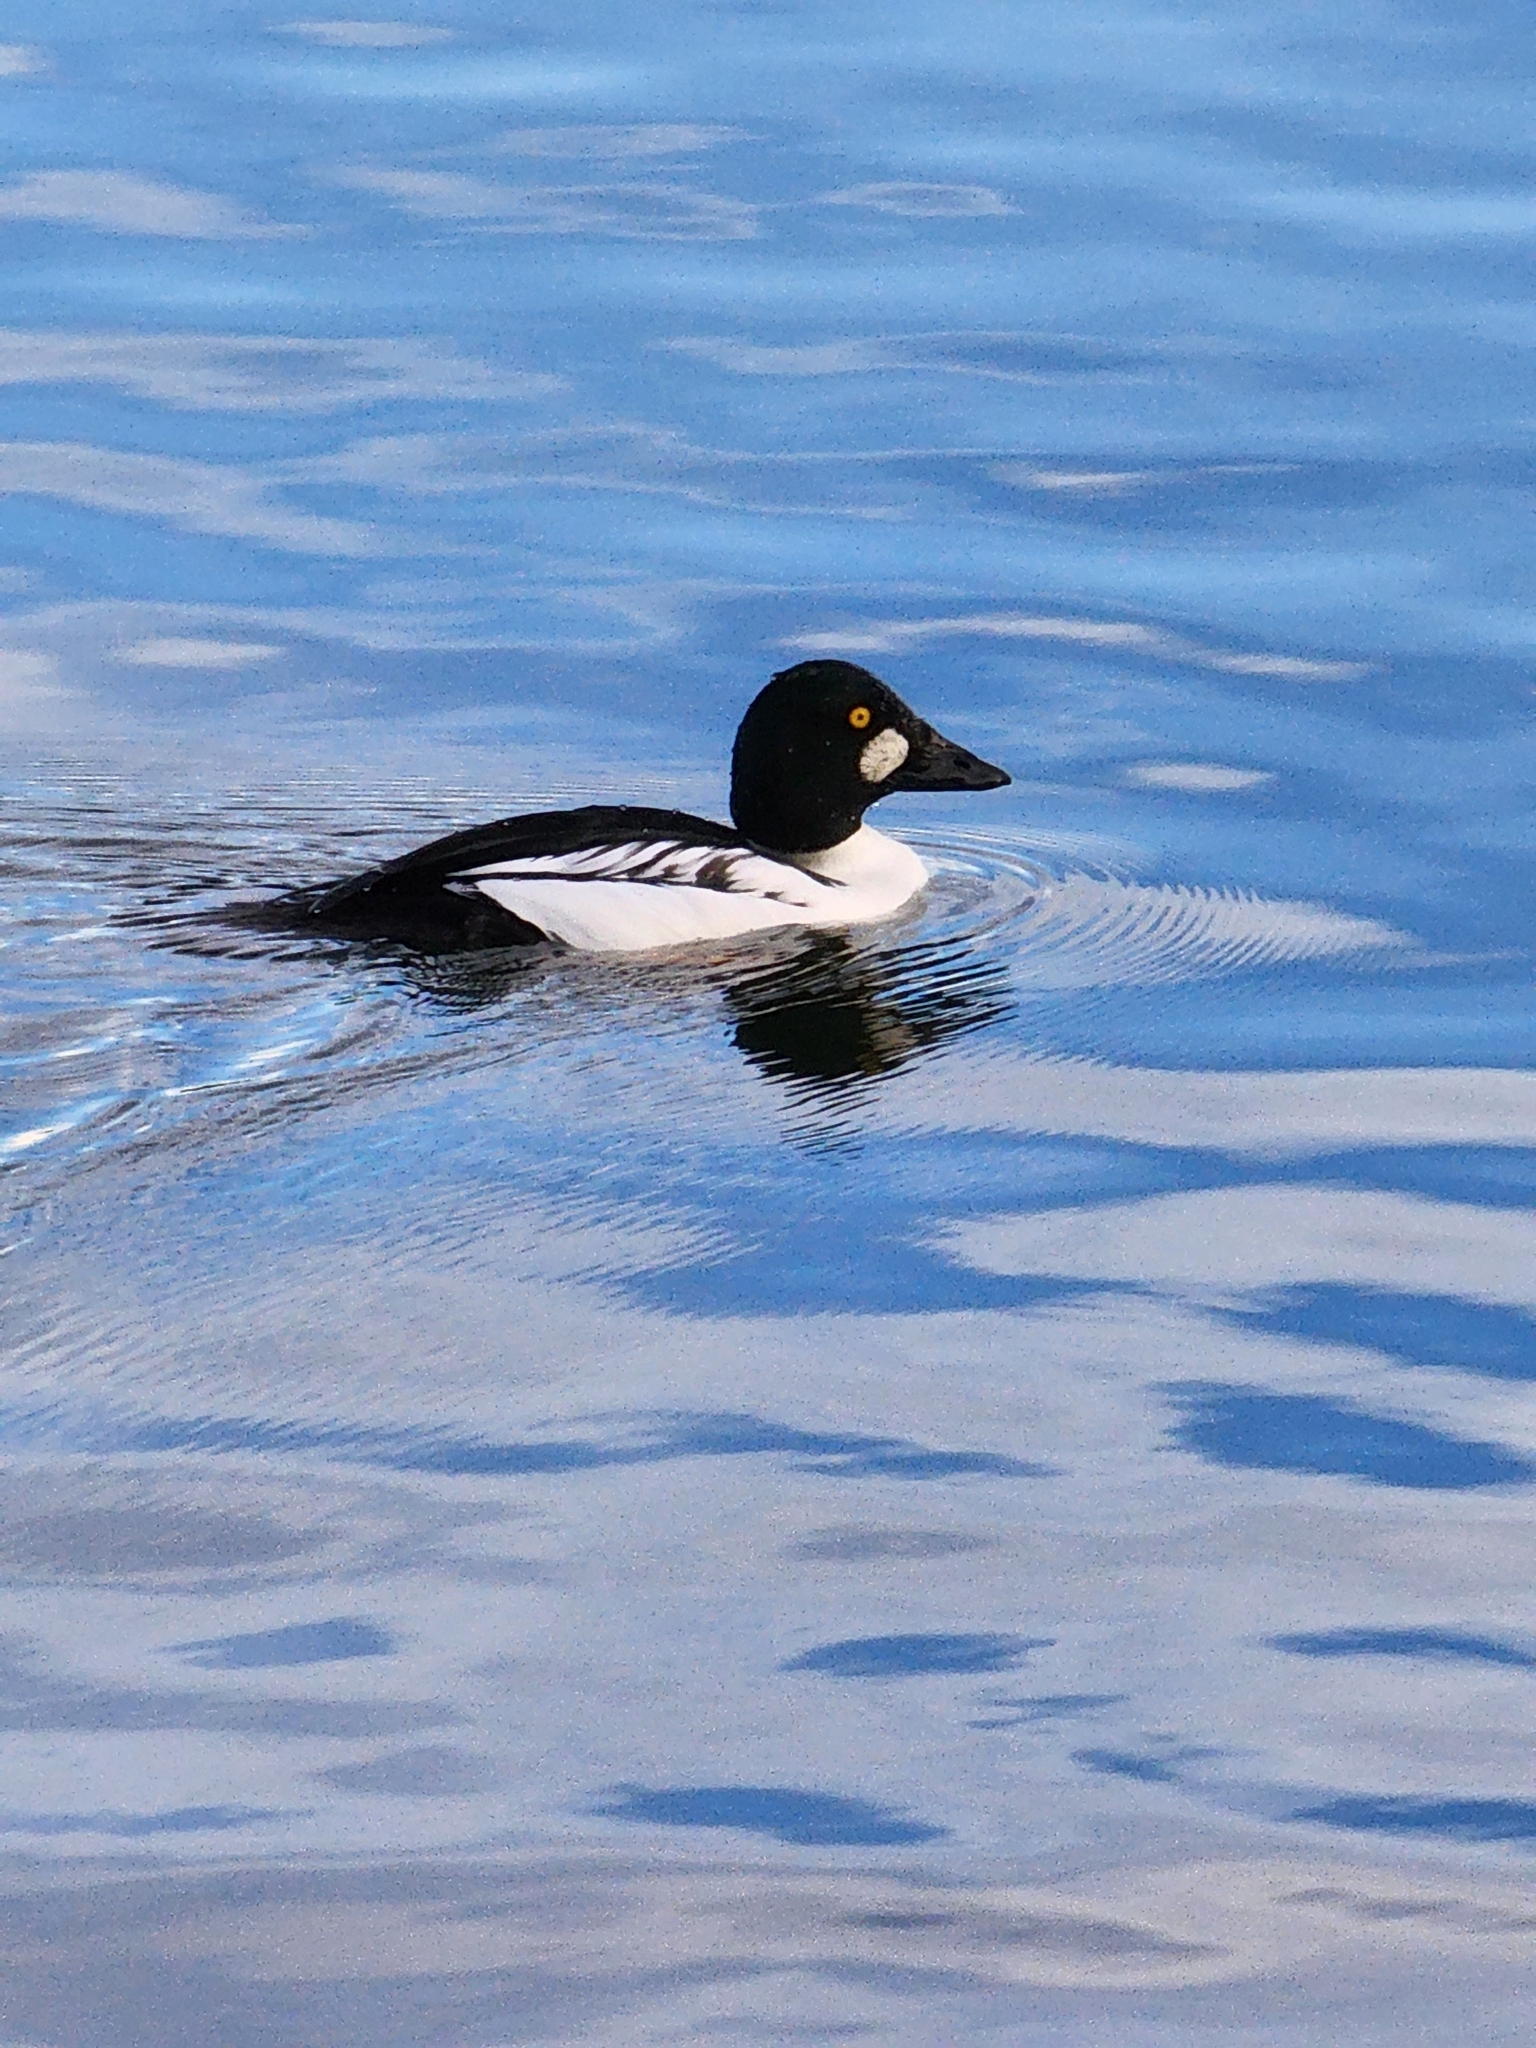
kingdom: Animalia
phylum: Chordata
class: Aves
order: Anseriformes
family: Anatidae
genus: Bucephala
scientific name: Bucephala clangula
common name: Common goldeneye
